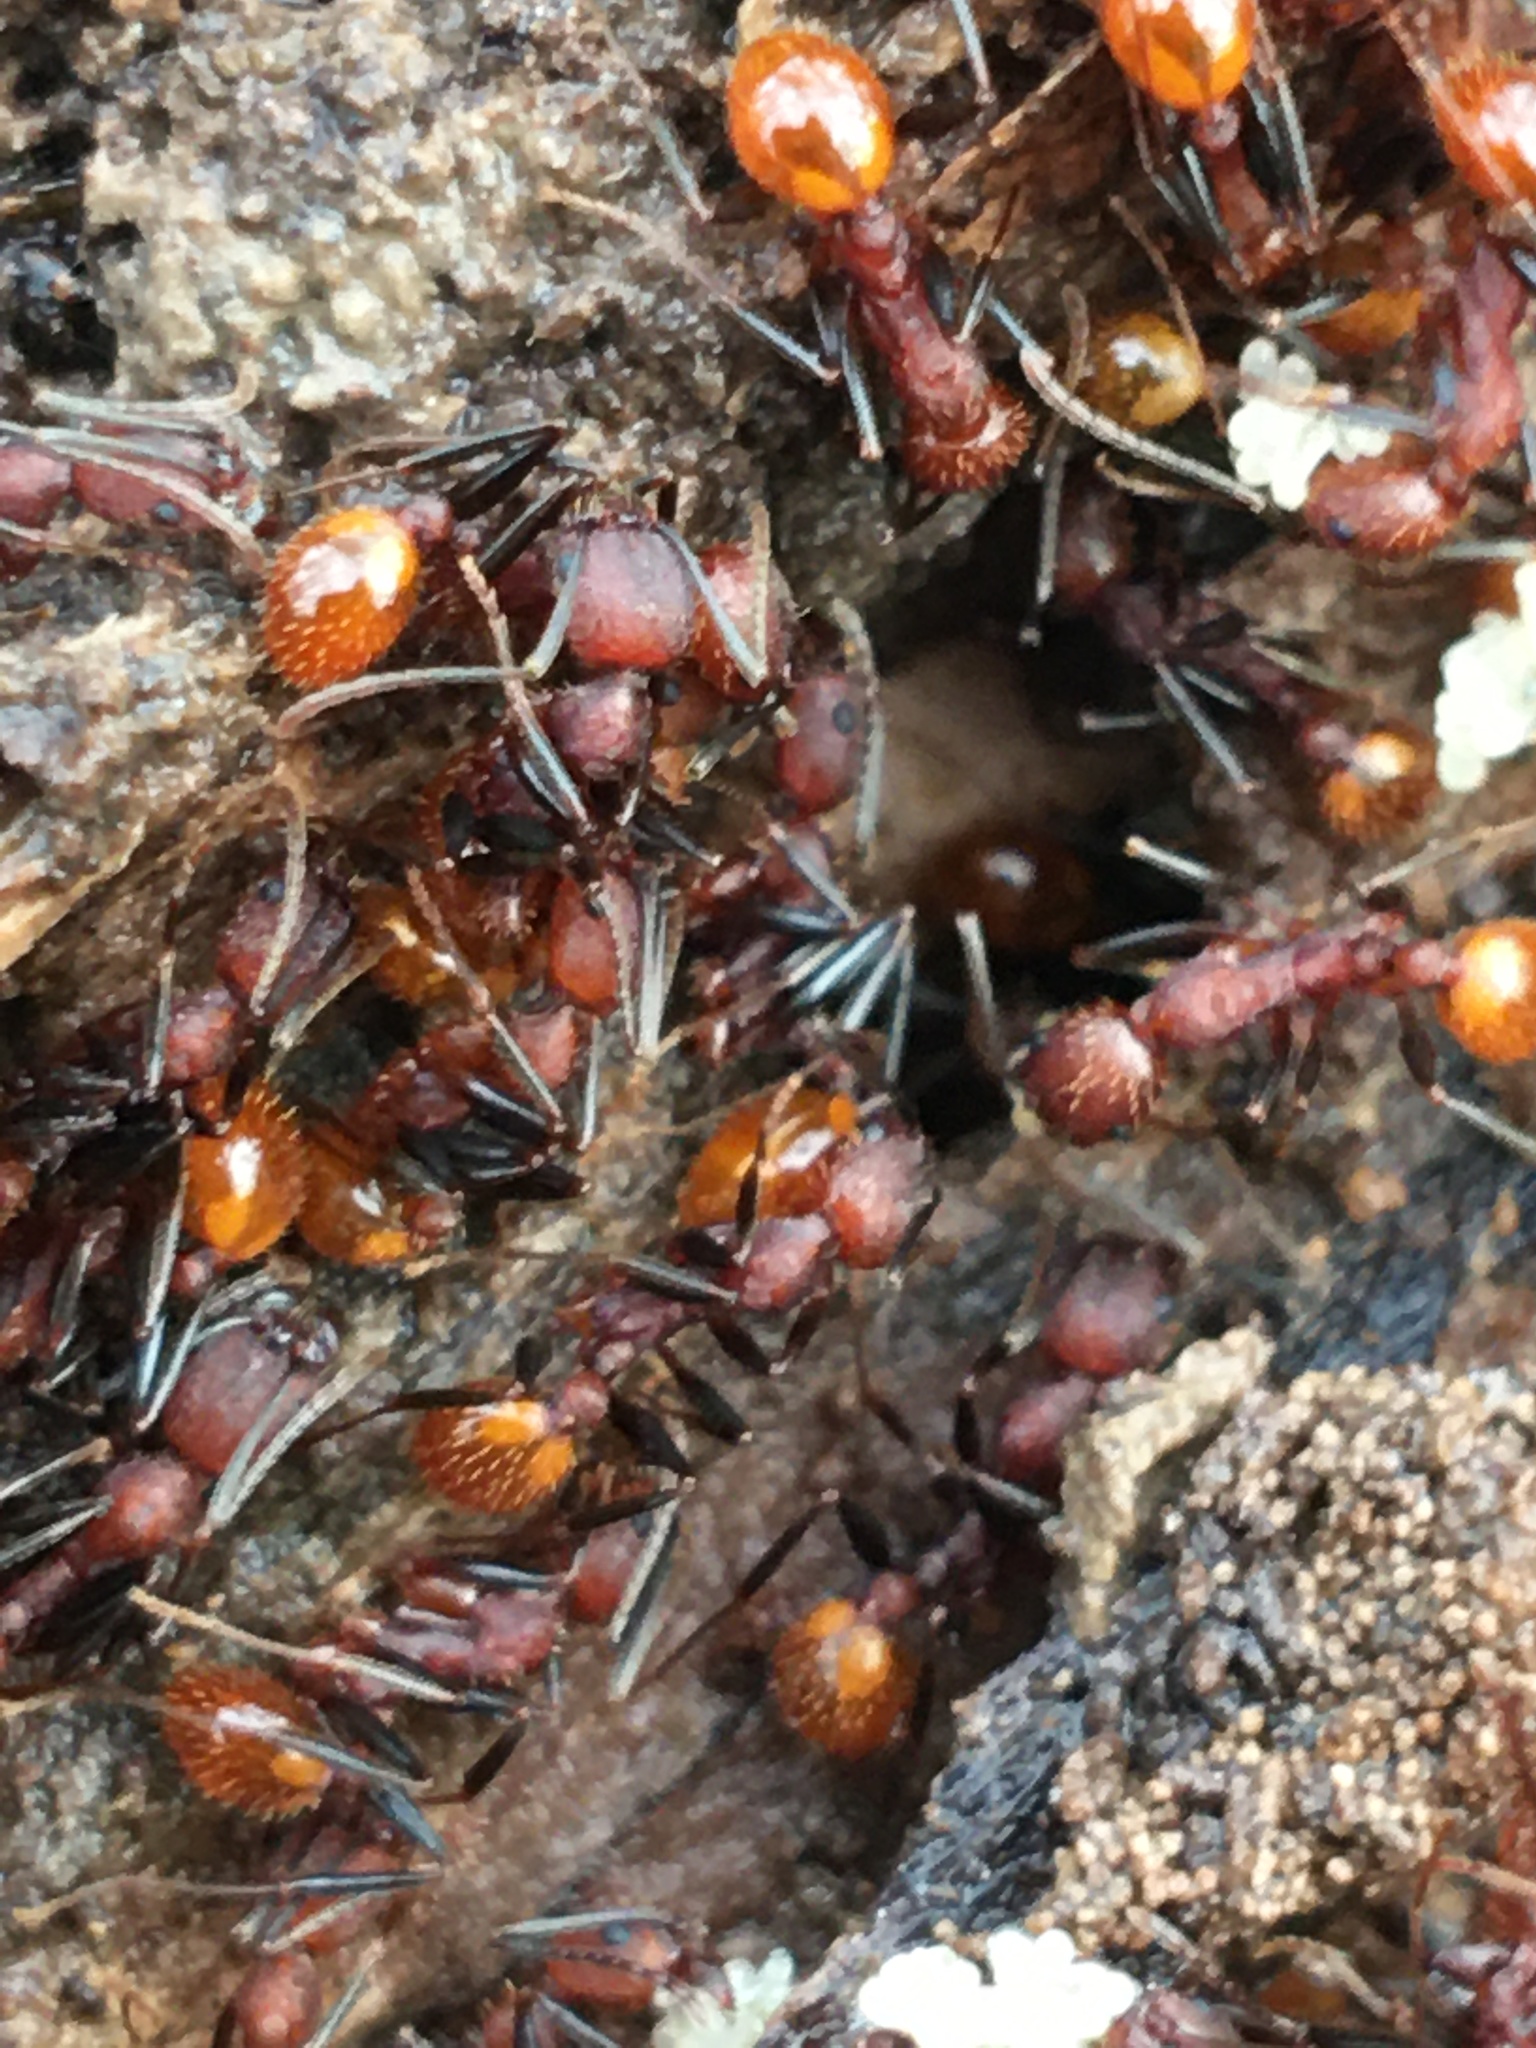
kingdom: Animalia
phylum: Arthropoda
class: Insecta
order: Hymenoptera
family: Formicidae
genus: Aphaenogaster
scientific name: Aphaenogaster lamellidens
